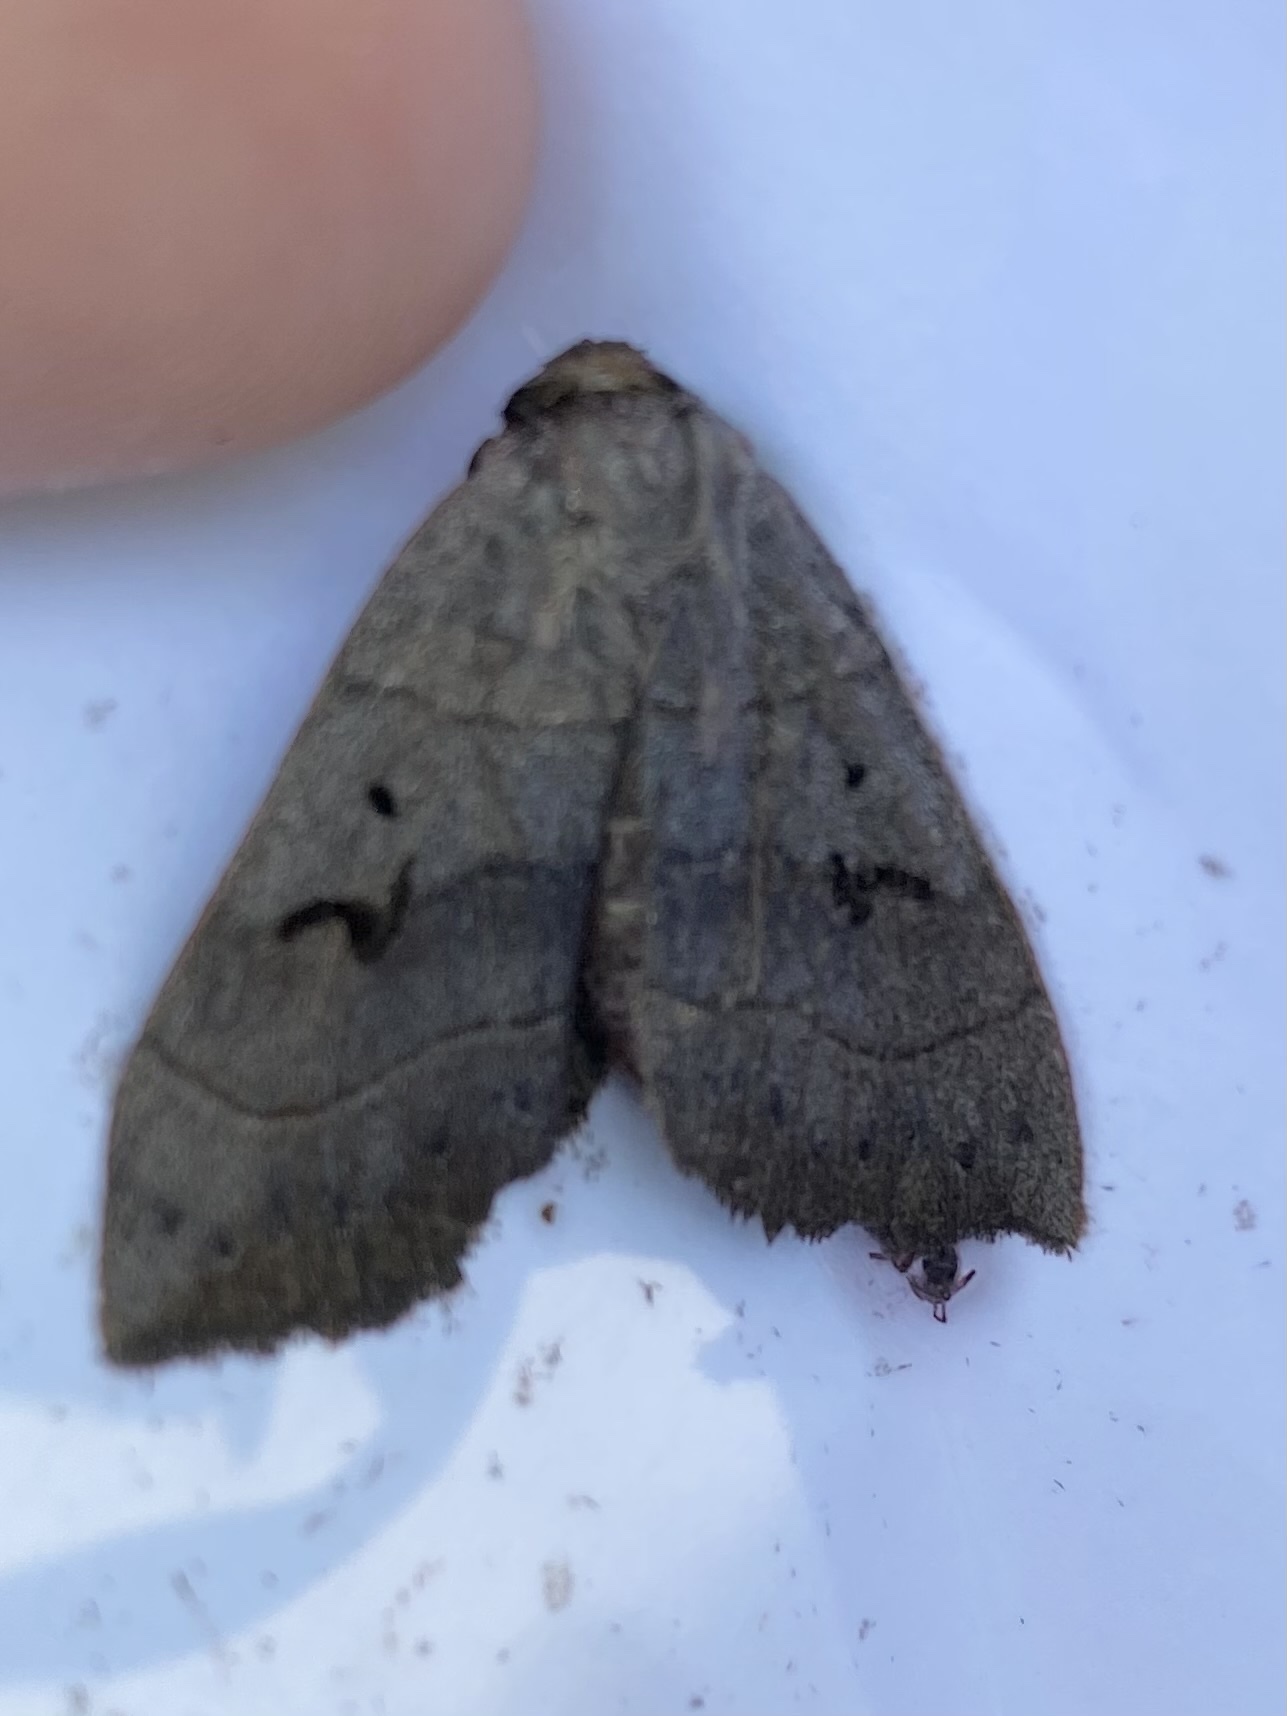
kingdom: Animalia
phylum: Arthropoda
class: Insecta
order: Lepidoptera
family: Erebidae
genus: Panopoda
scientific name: Panopoda carneicosta
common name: Brown panopoda moth
